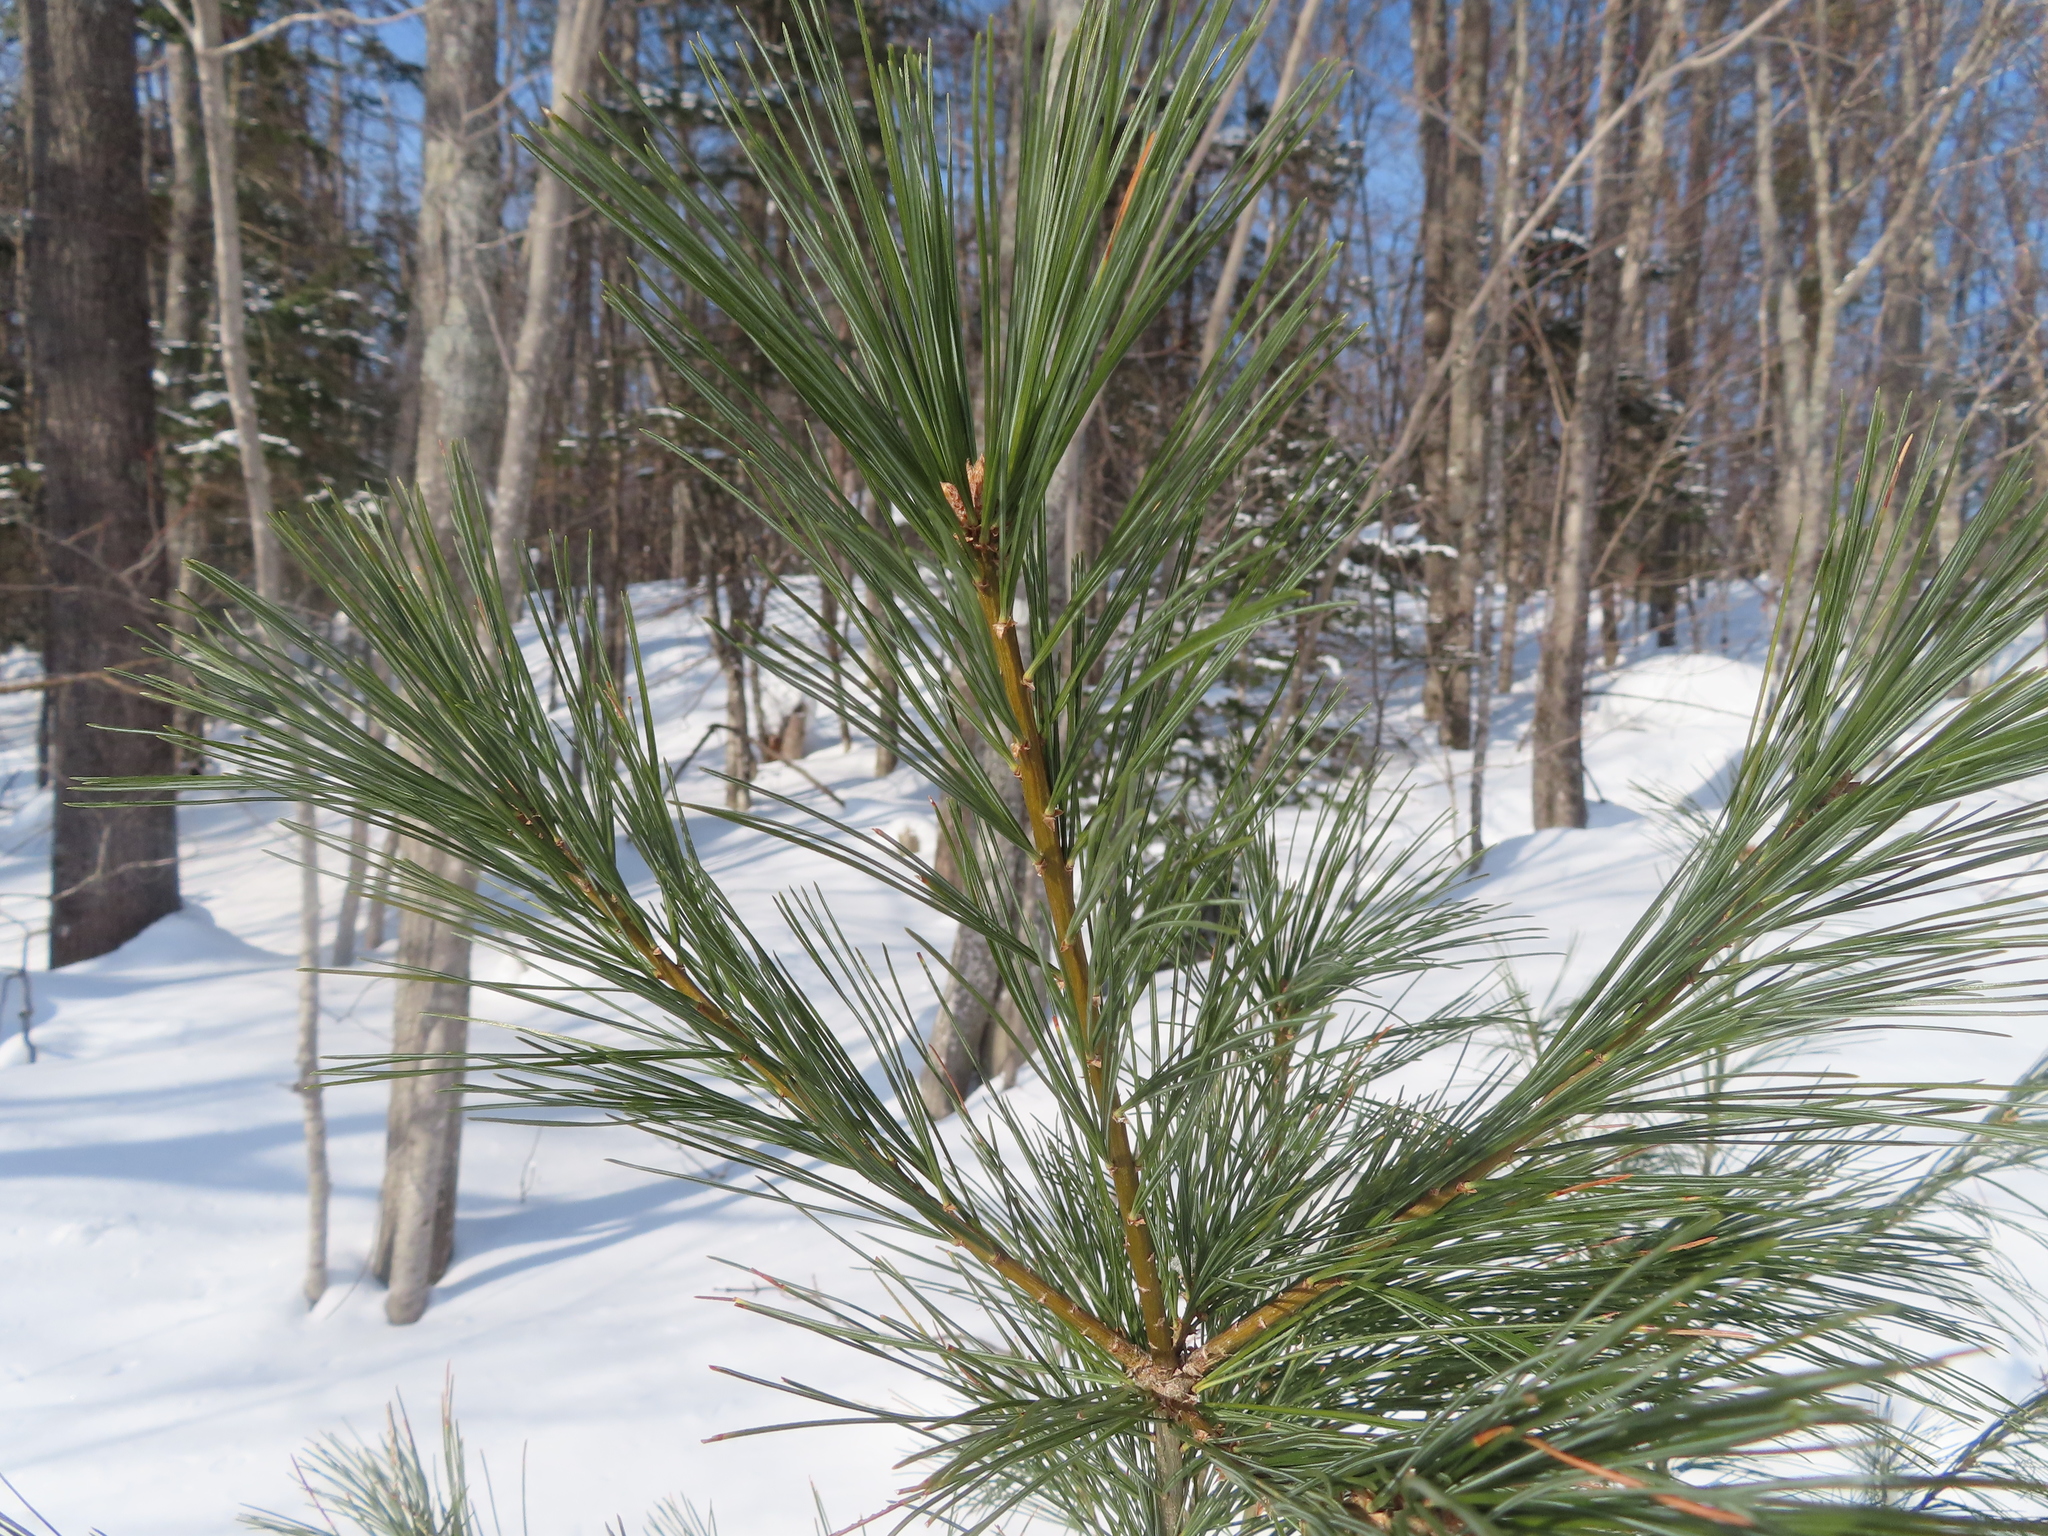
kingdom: Plantae
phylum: Tracheophyta
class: Pinopsida
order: Pinales
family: Pinaceae
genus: Pinus
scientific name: Pinus strobus
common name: Weymouth pine
